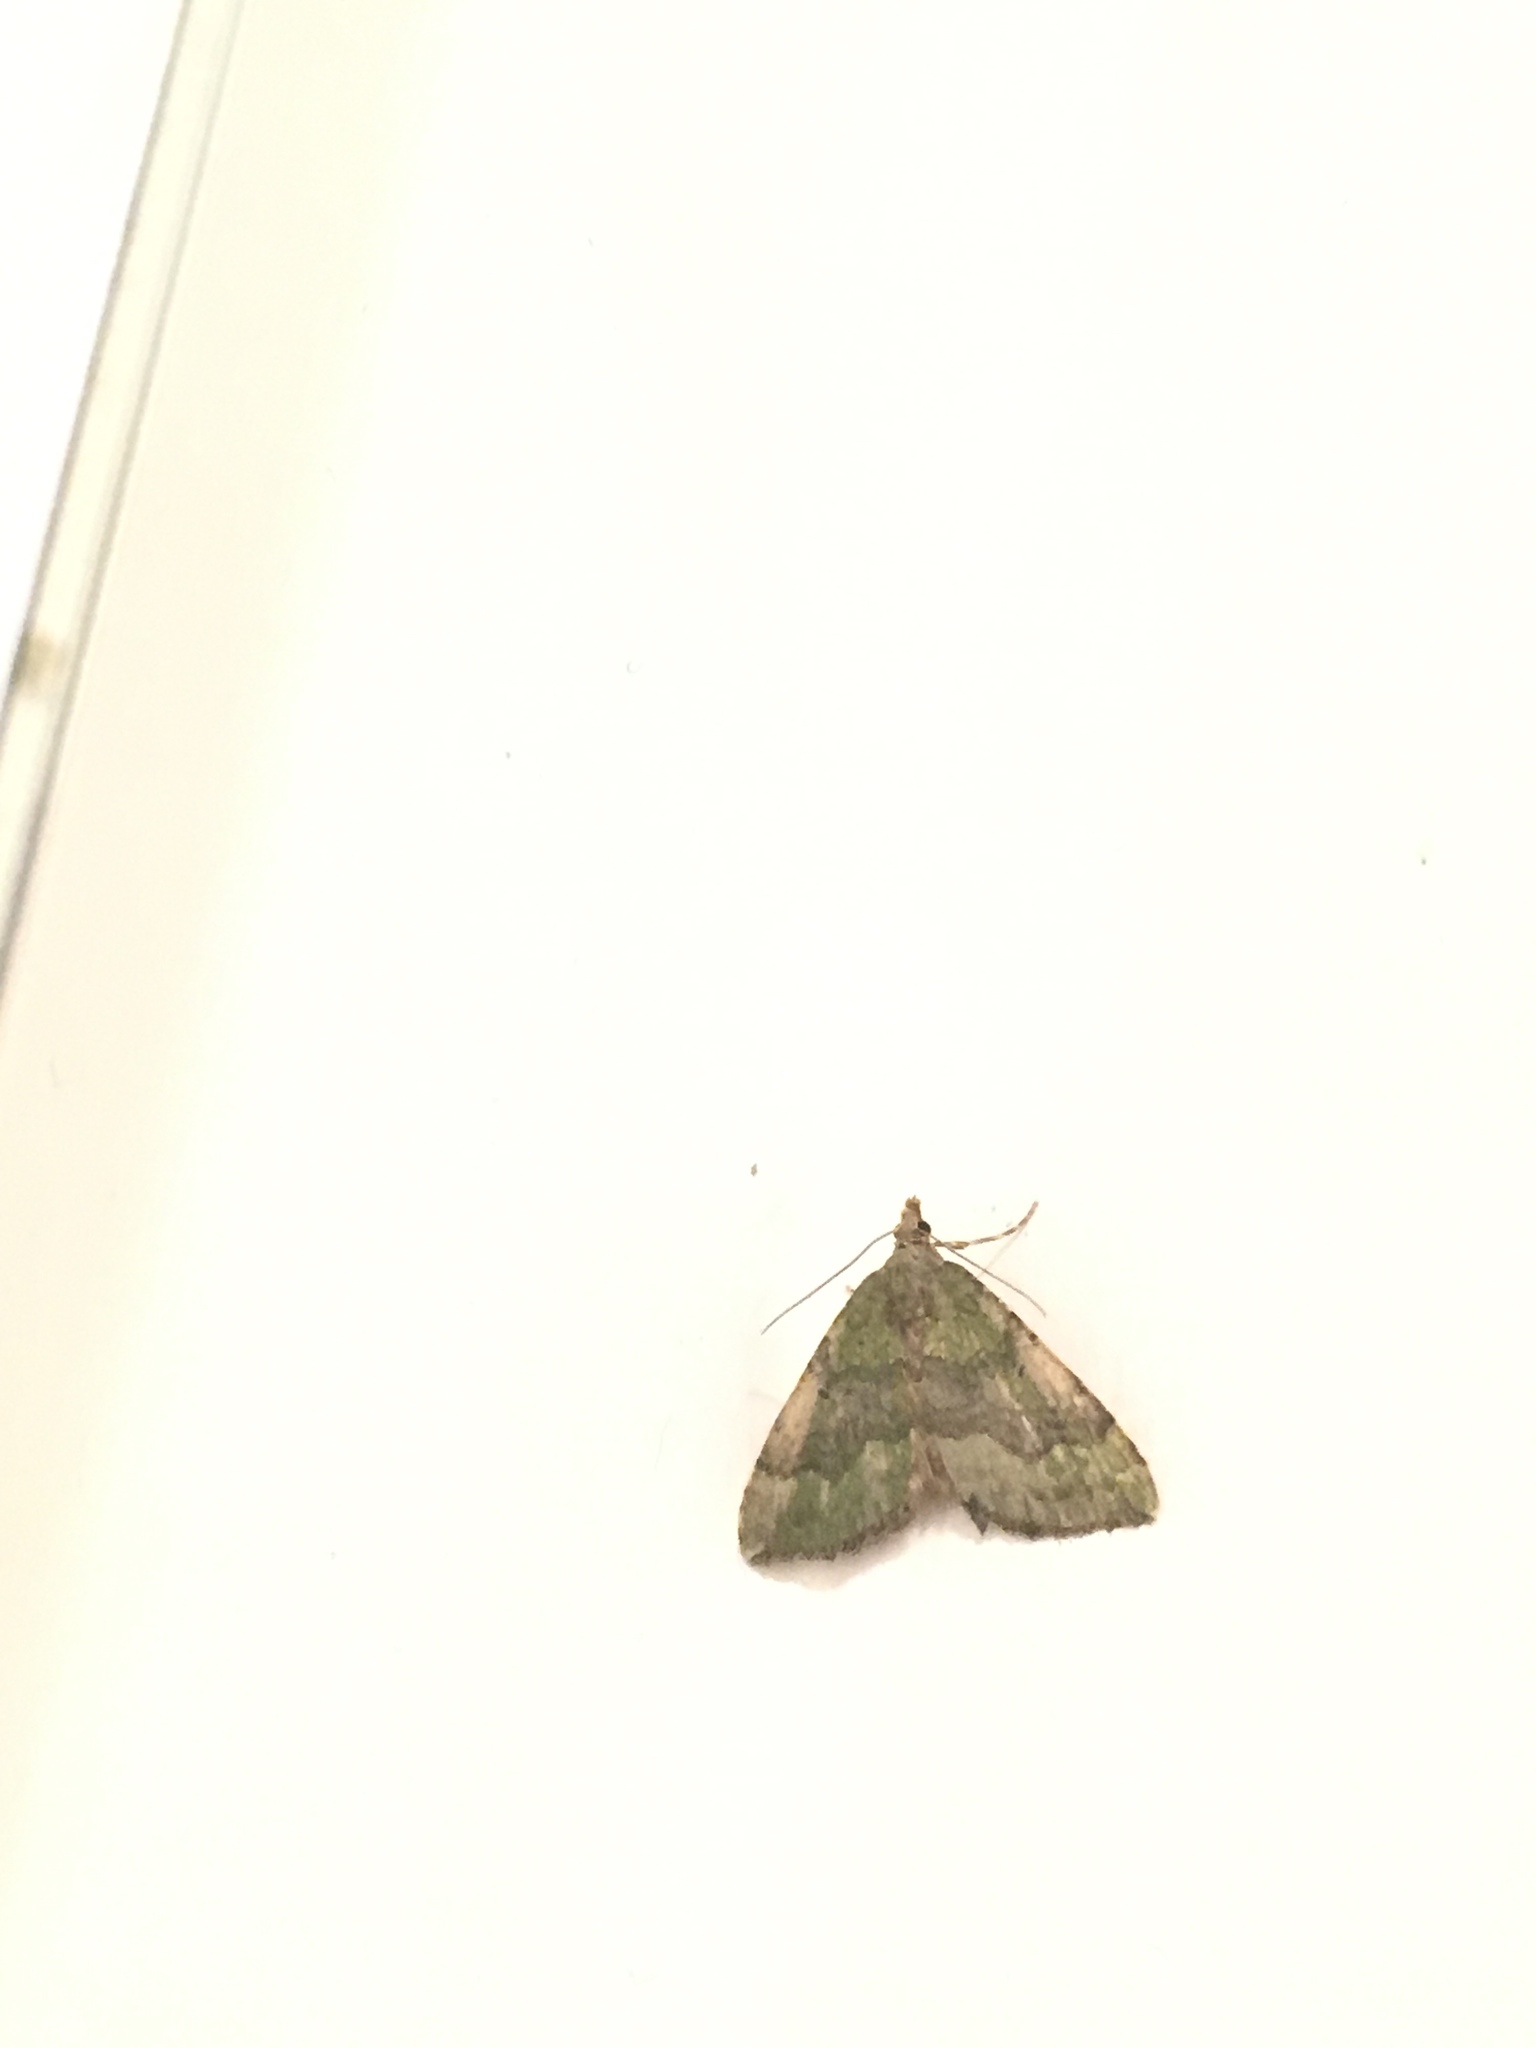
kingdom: Animalia
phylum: Arthropoda
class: Insecta
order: Lepidoptera
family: Geometridae
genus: Epyaxa
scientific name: Epyaxa rosearia
